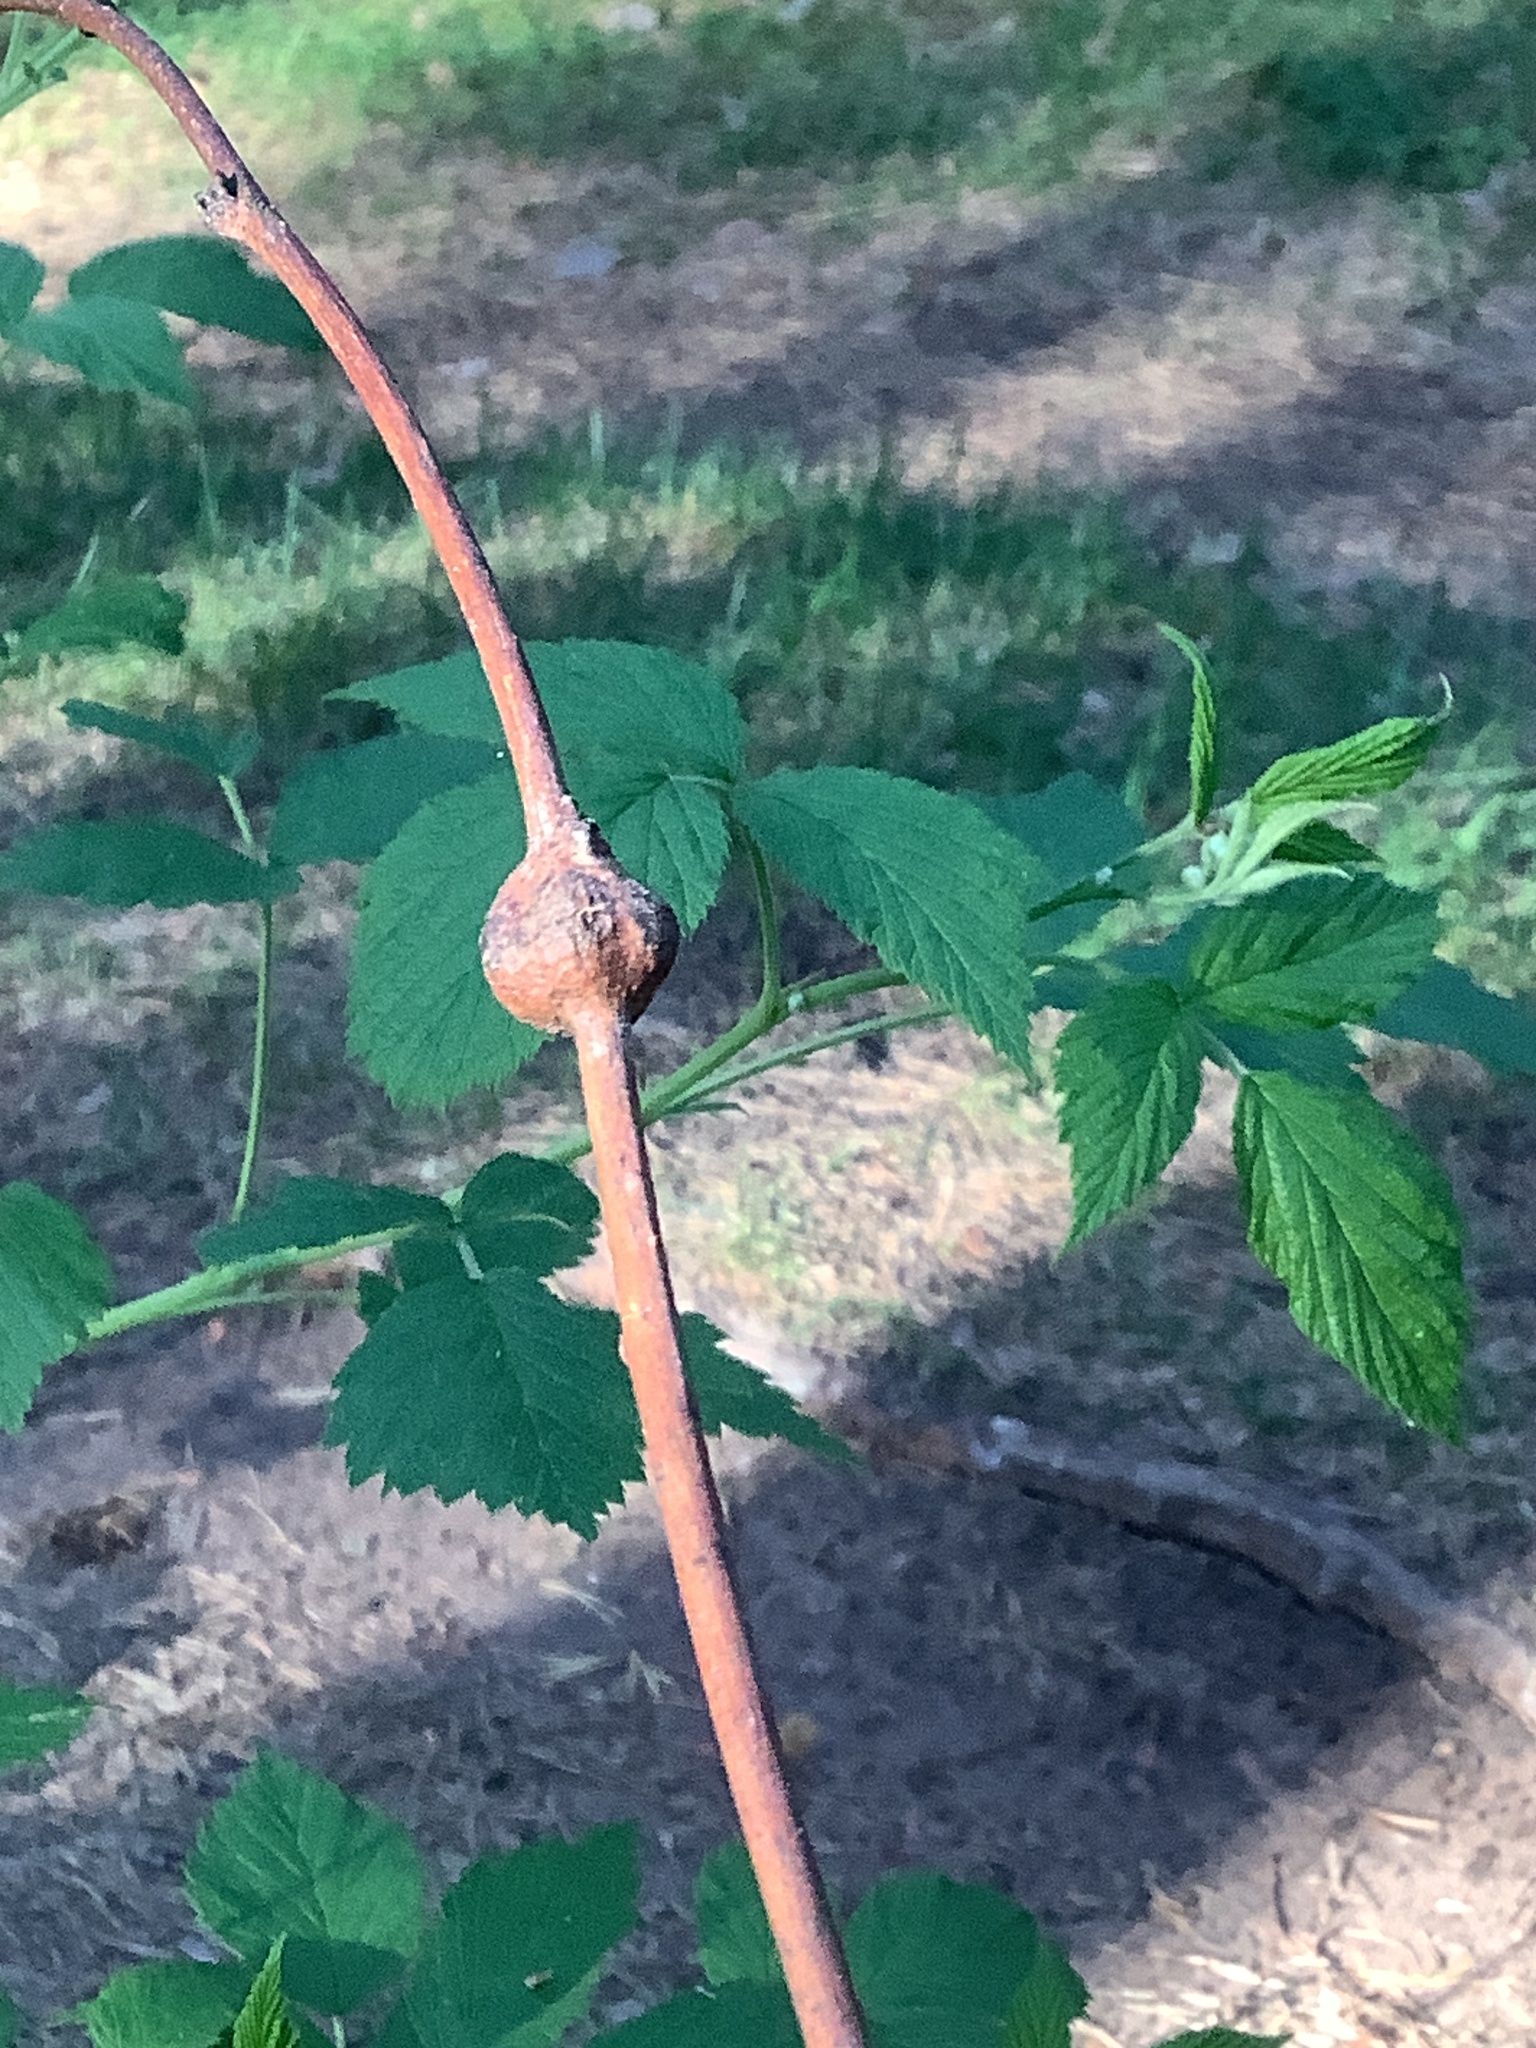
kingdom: Animalia
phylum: Arthropoda
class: Insecta
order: Diptera
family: Cecidomyiidae
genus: Lasioptera
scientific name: Lasioptera rubi
